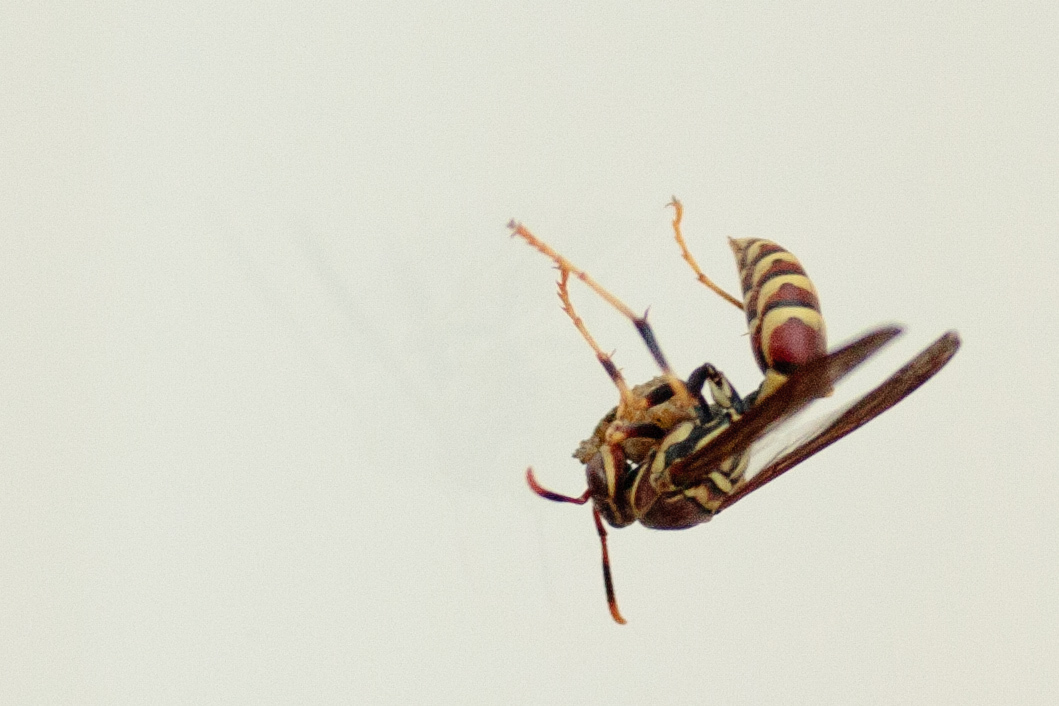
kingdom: Animalia
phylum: Arthropoda
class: Insecta
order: Hymenoptera
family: Eumenidae
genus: Polistes
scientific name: Polistes exclamans
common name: Paper wasp
